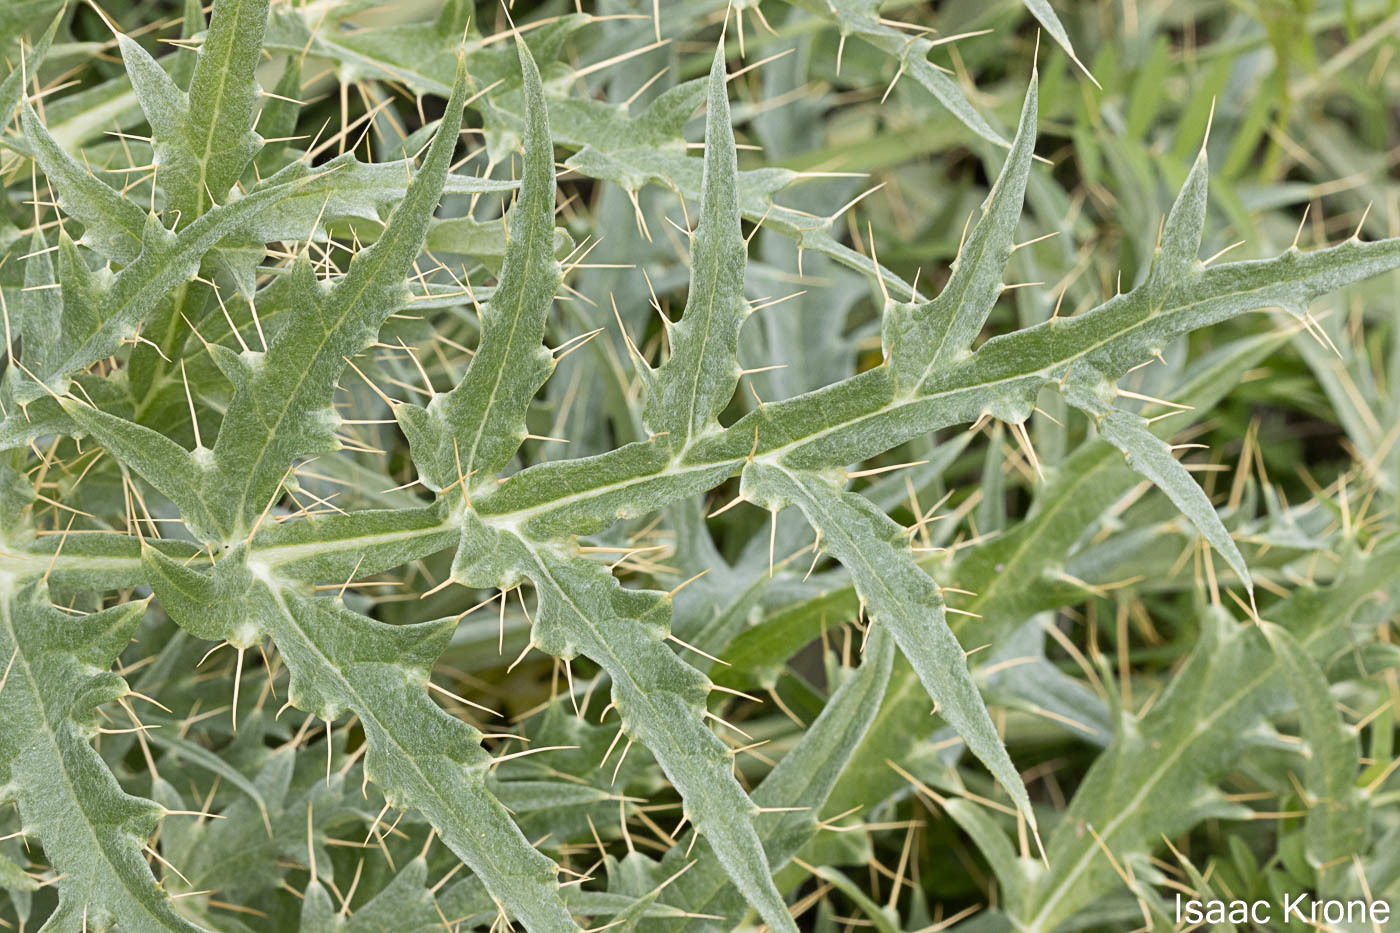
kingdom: Plantae
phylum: Tracheophyta
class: Magnoliopsida
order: Asterales
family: Asteraceae
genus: Cynara
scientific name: Cynara cardunculus
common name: Globe artichoke
